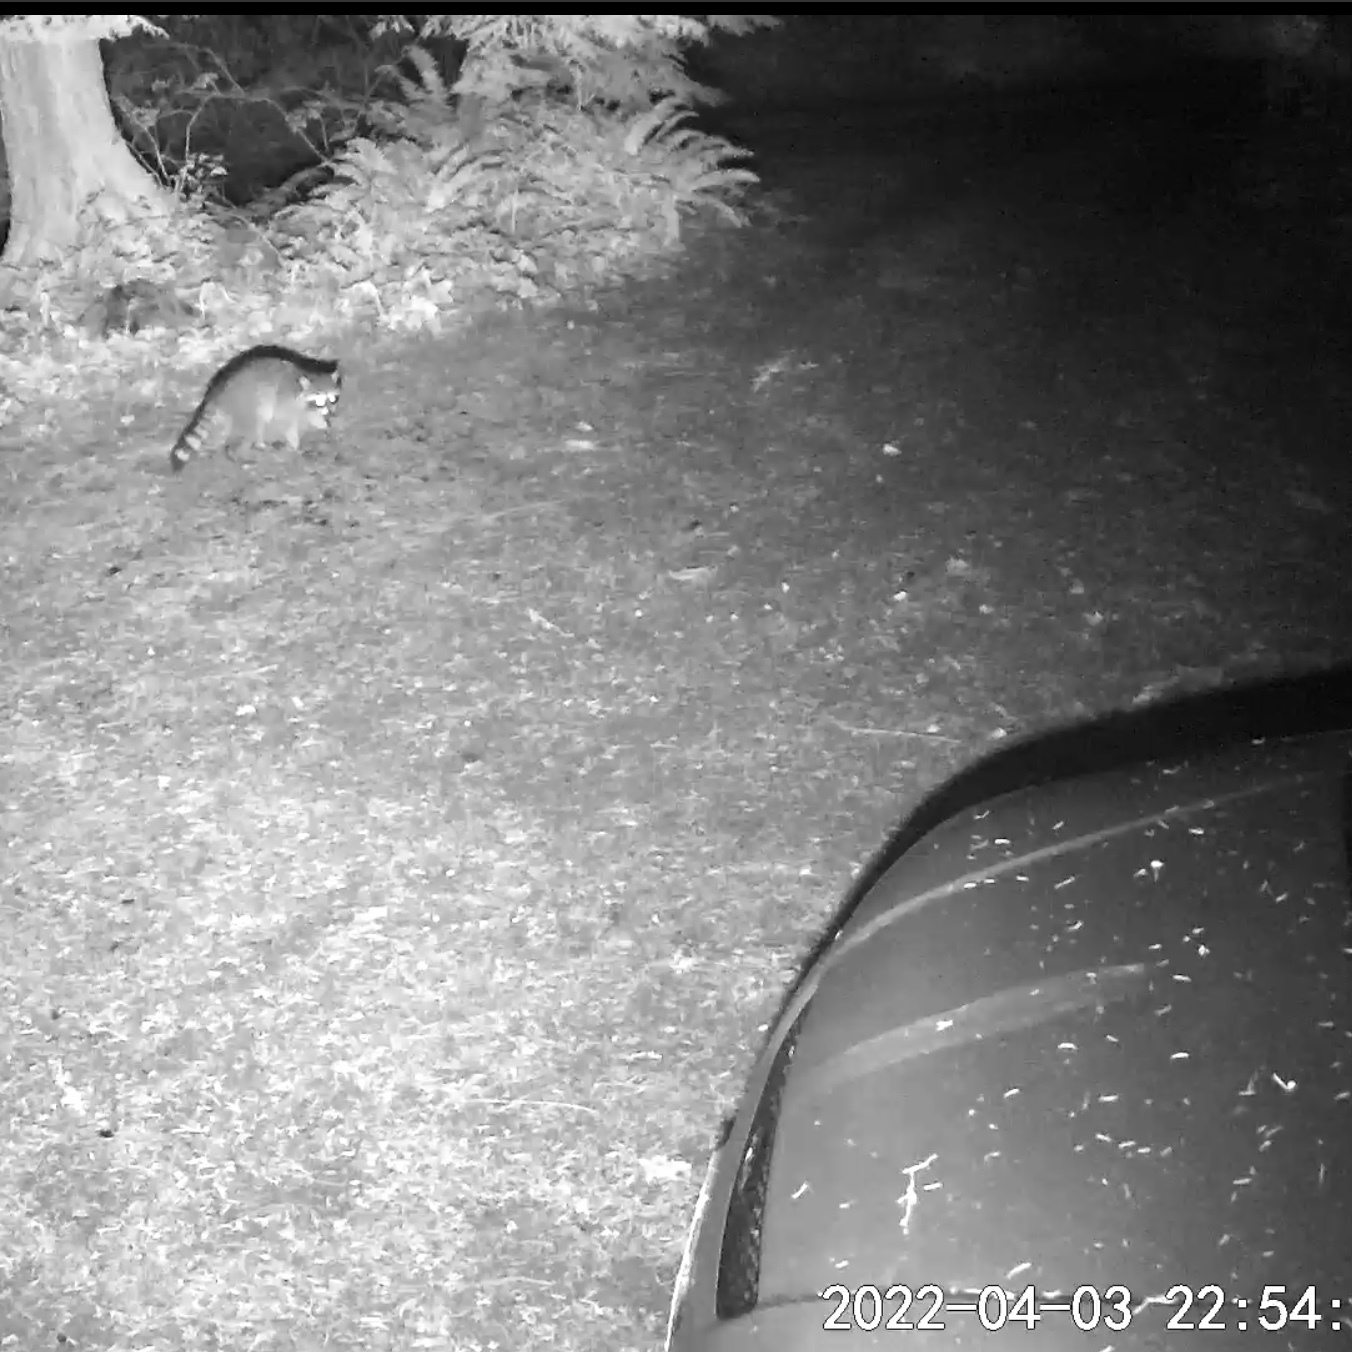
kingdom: Animalia
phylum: Chordata
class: Mammalia
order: Carnivora
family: Procyonidae
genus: Procyon
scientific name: Procyon lotor
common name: Raccoon
